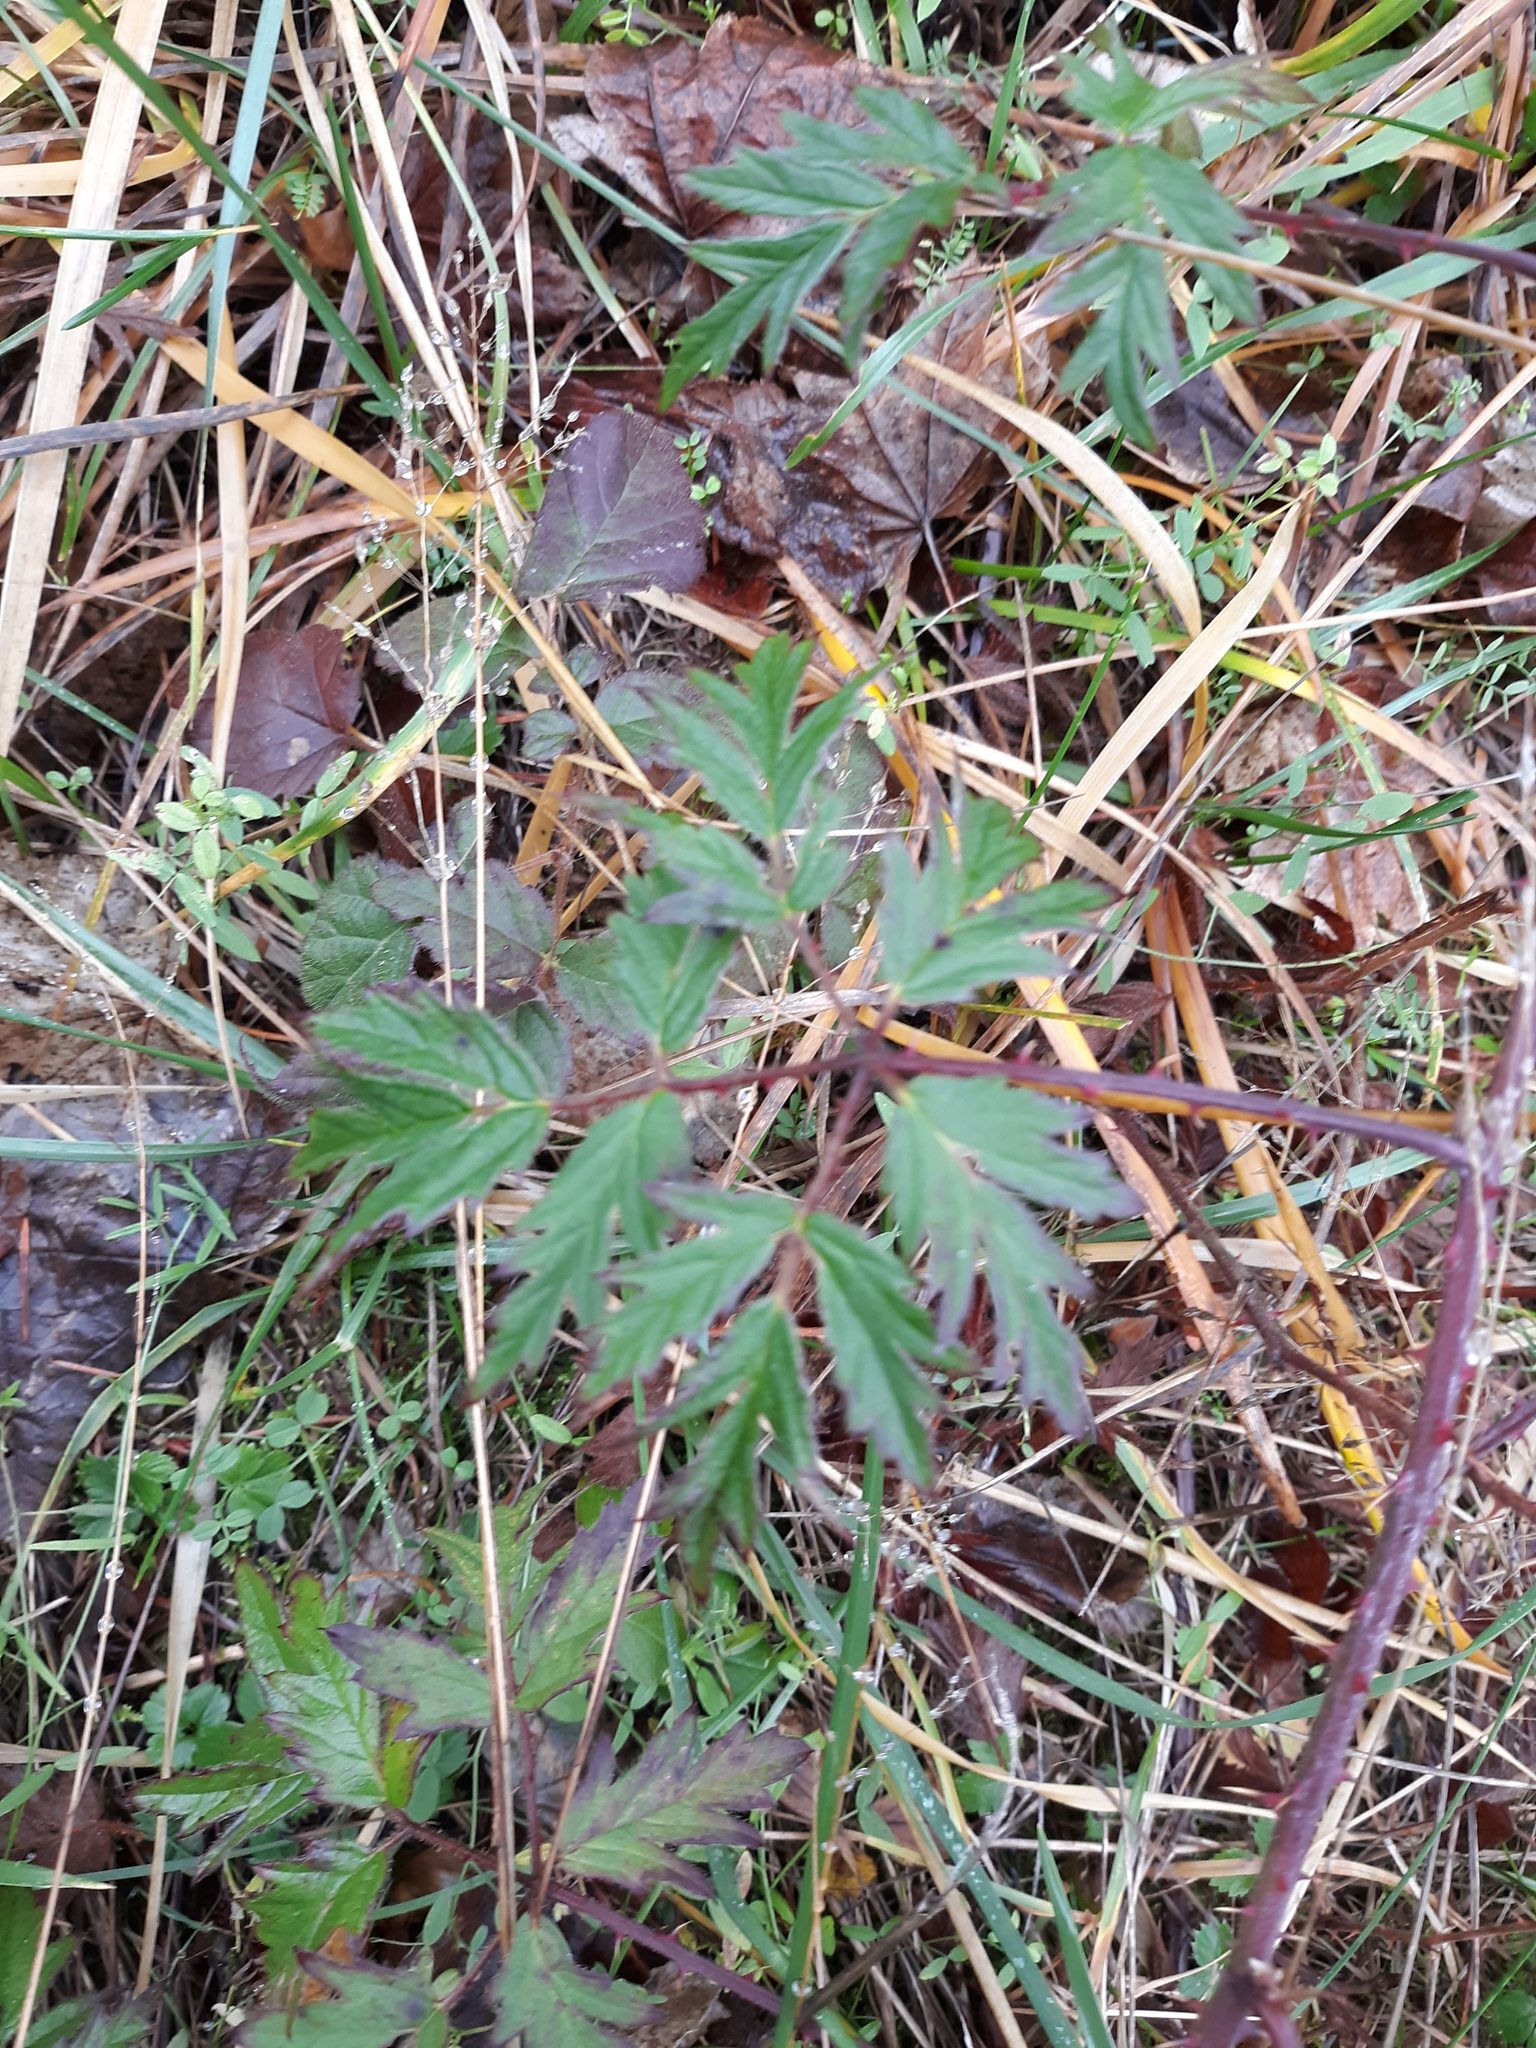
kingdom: Plantae
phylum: Tracheophyta
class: Magnoliopsida
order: Rosales
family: Rosaceae
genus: Rubus
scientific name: Rubus laciniatus
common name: Evergreen blackberry
